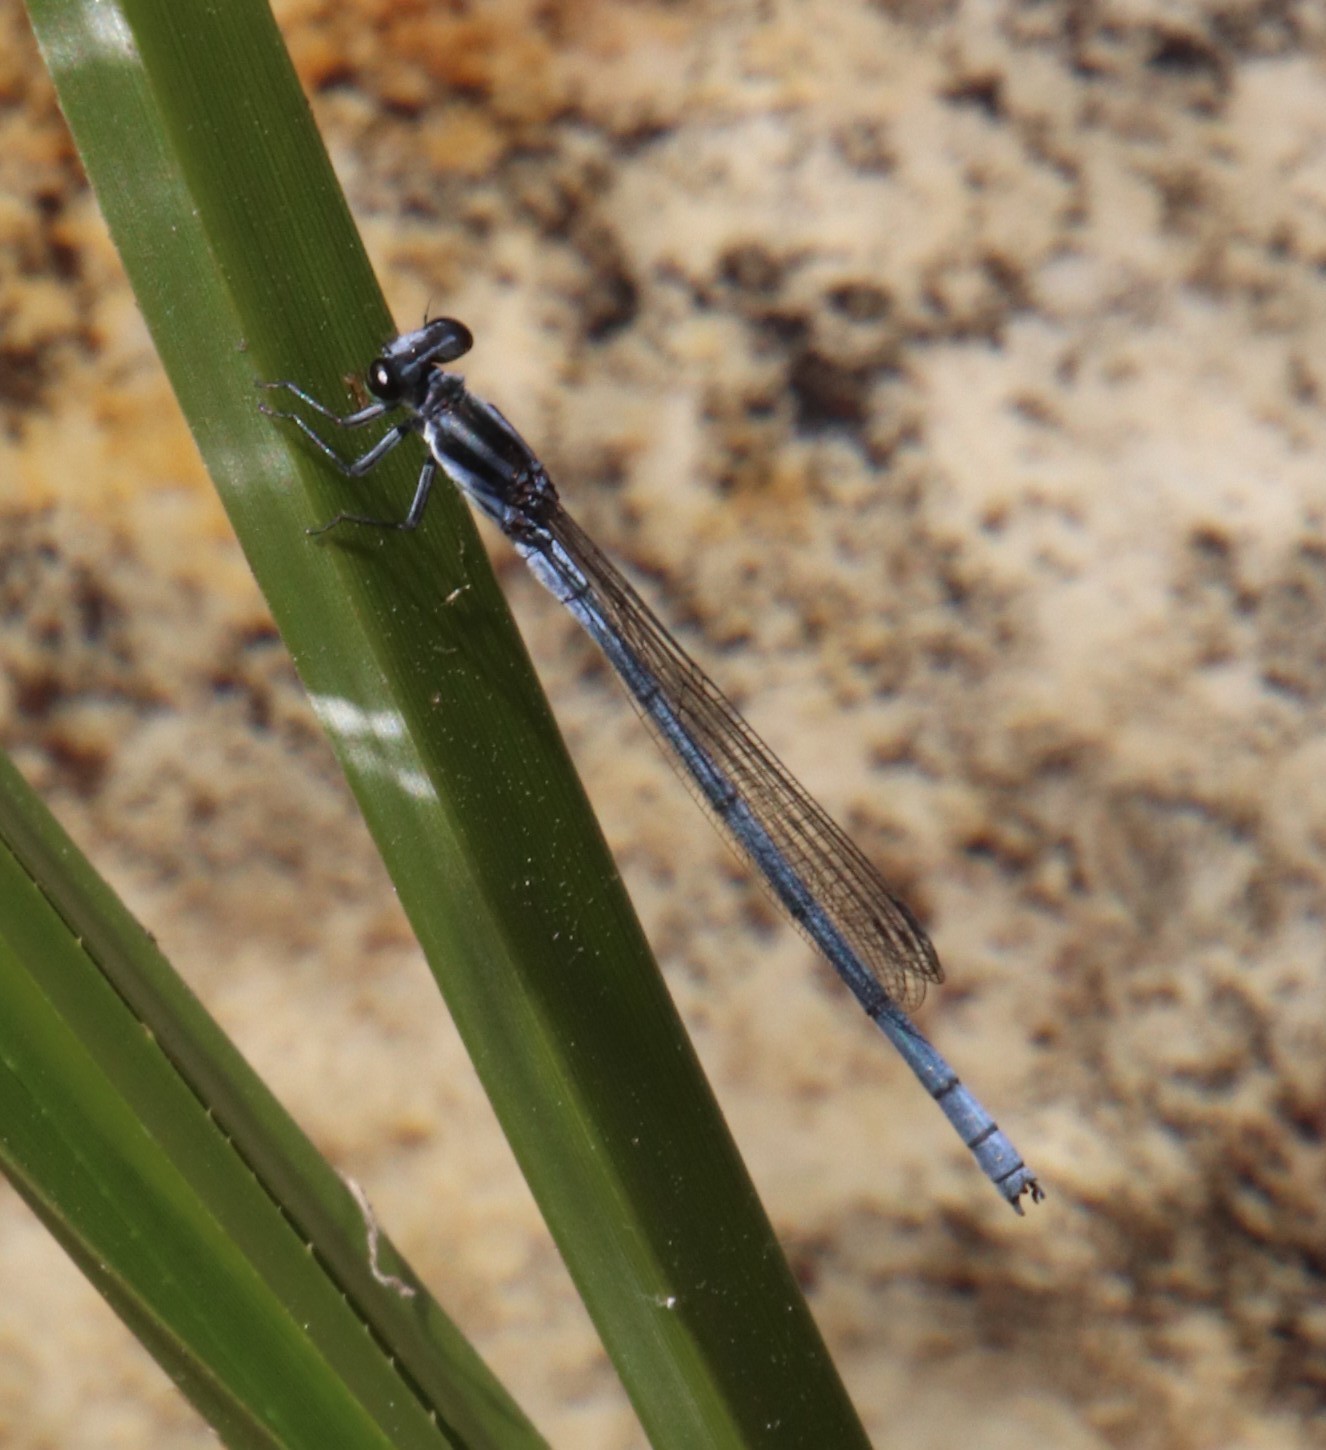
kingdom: Animalia
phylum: Arthropoda
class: Insecta
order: Odonata
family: Coenagrionidae
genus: Pseudagrion
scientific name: Pseudagrion kersteni
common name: Powder-faced sprite
